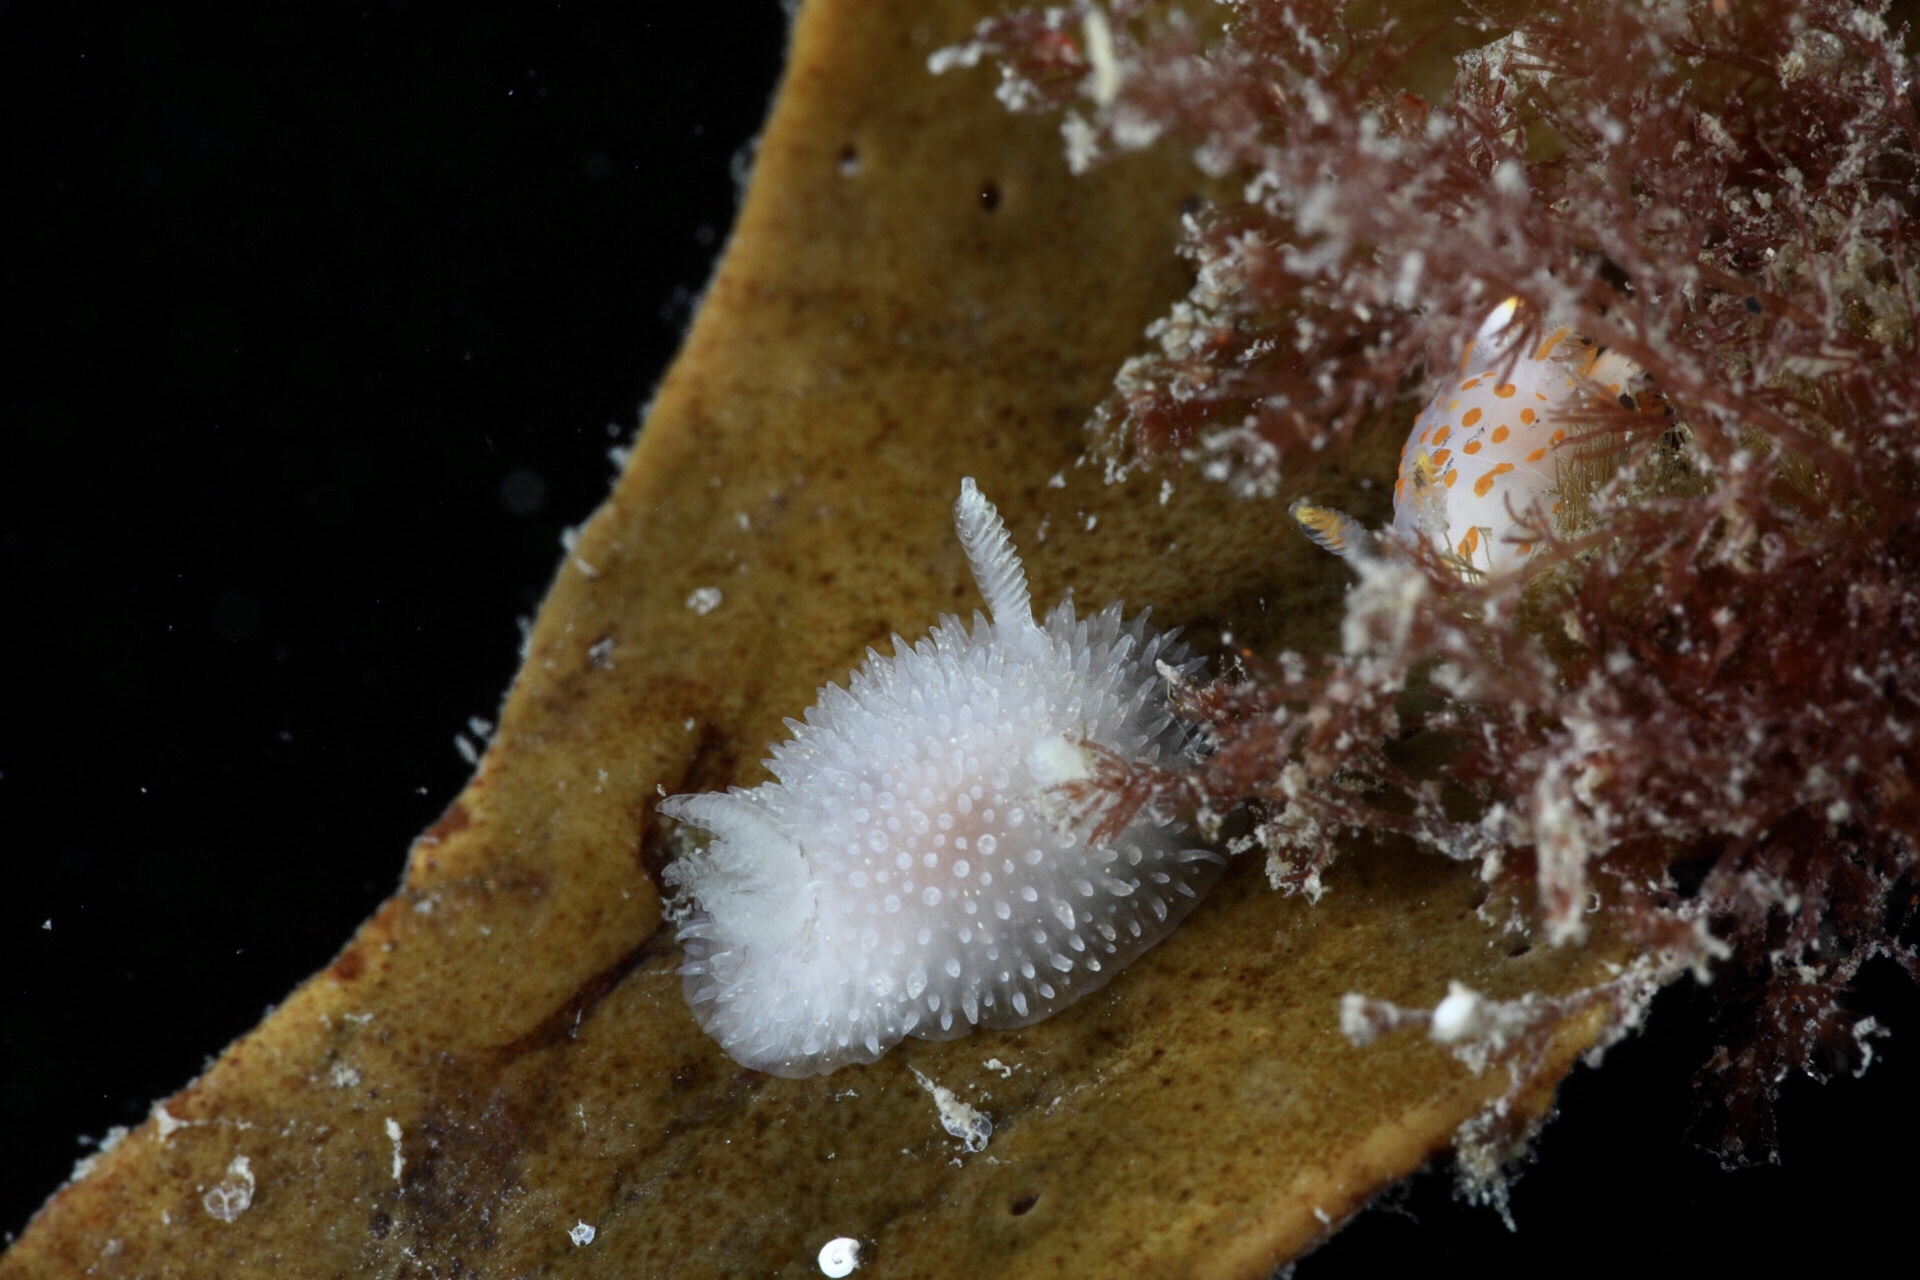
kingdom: Animalia
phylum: Mollusca
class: Gastropoda
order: Nudibranchia
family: Onchidorididae
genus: Acanthodoris
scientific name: Acanthodoris pilosa
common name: Hairy spiny doris
